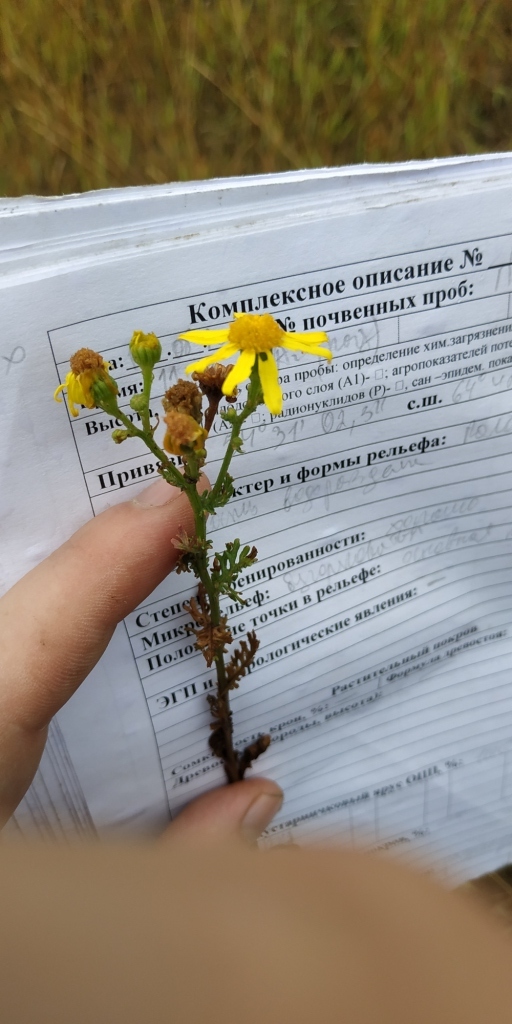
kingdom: Plantae
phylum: Tracheophyta
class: Magnoliopsida
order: Asterales
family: Asteraceae
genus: Jacobaea
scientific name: Jacobaea erucifolia
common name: Hoary ragwort
